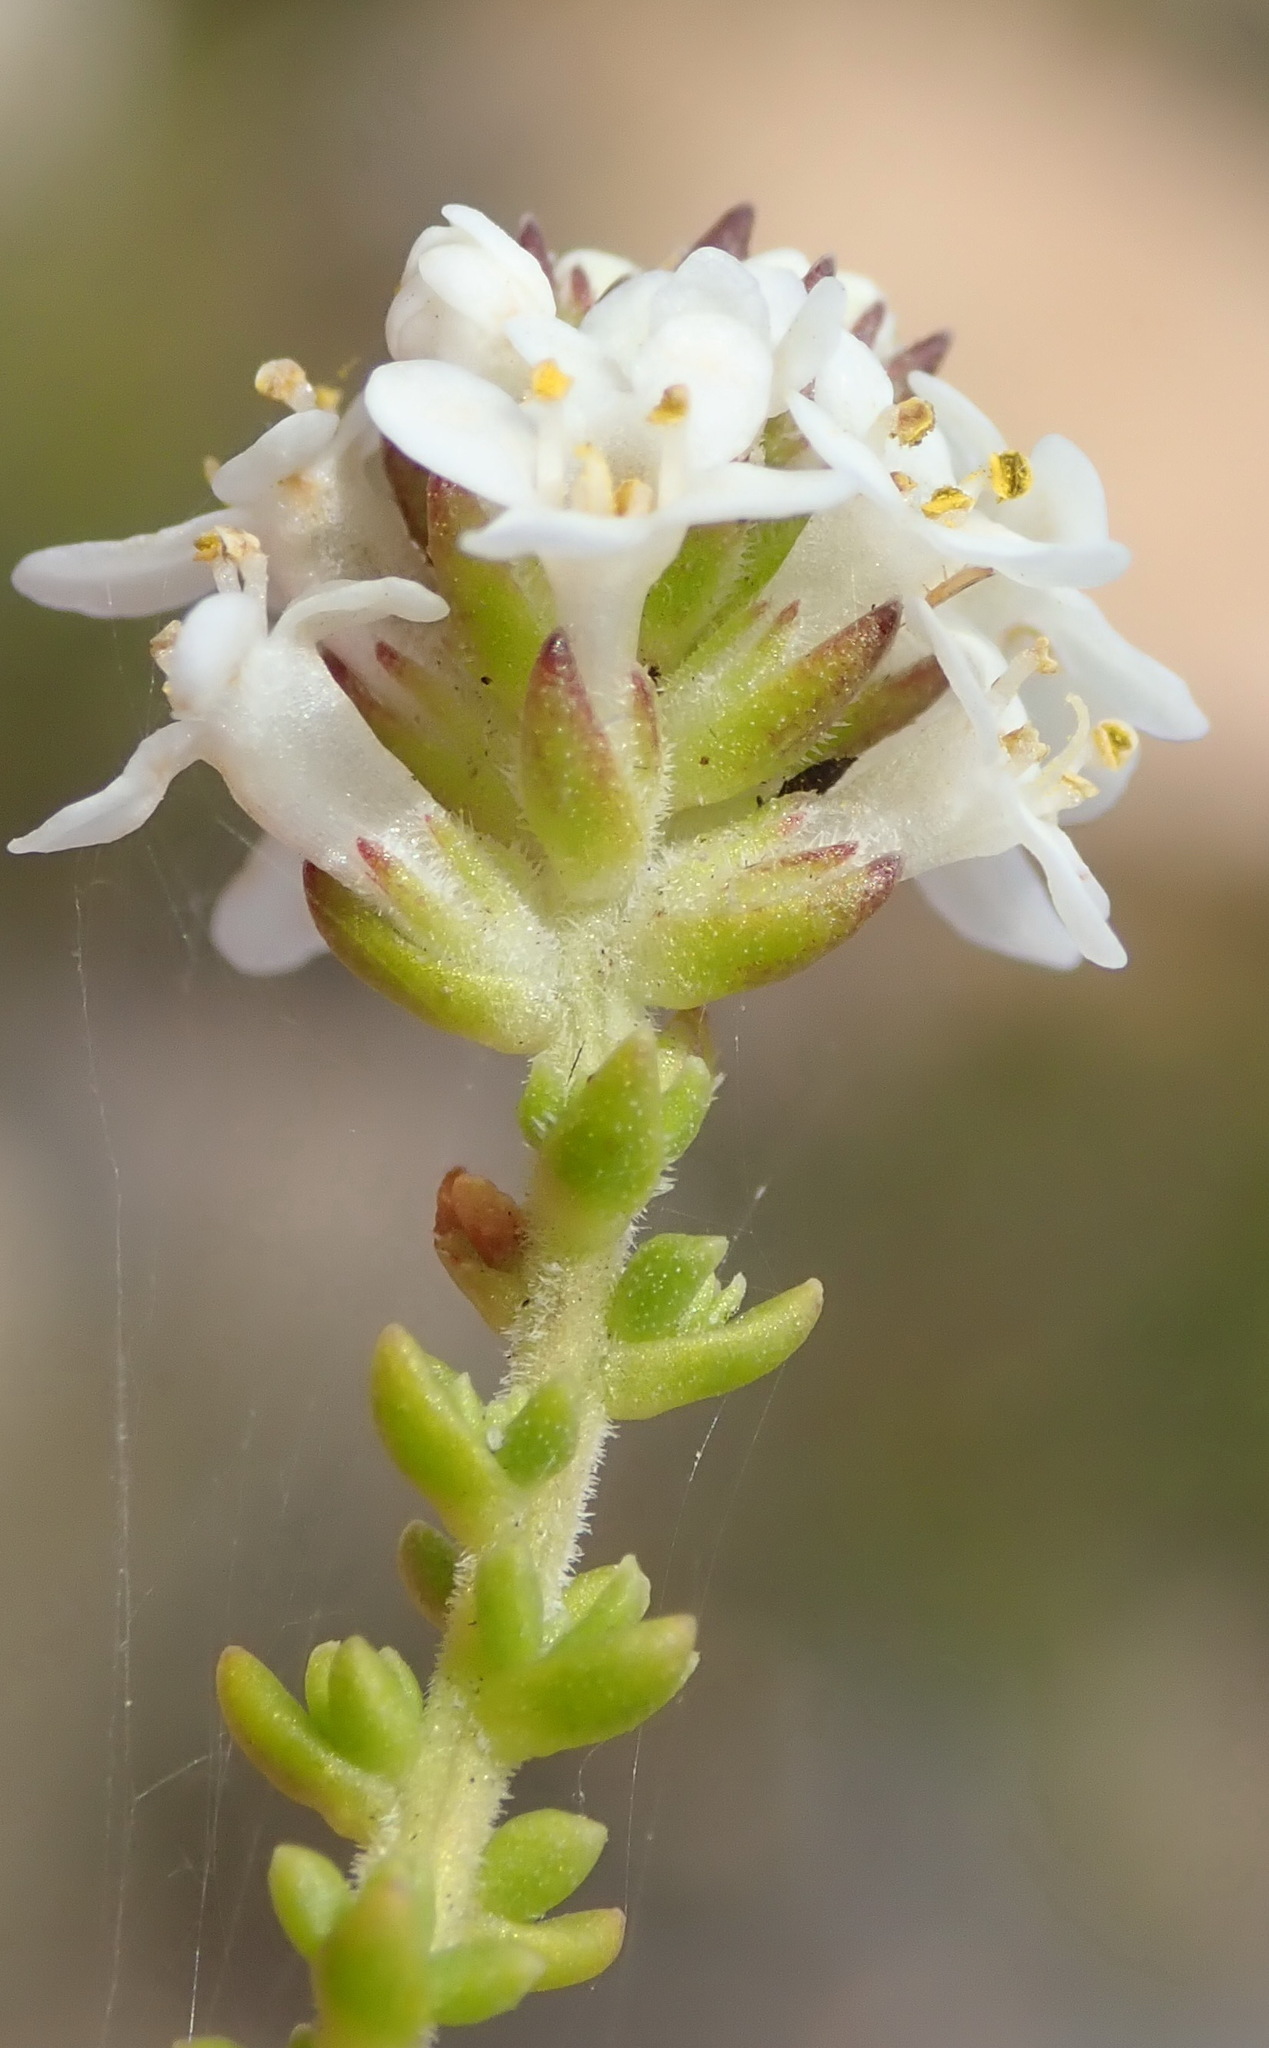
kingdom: Plantae
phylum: Tracheophyta
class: Magnoliopsida
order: Lamiales
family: Scrophulariaceae
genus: Selago
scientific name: Selago karooica
